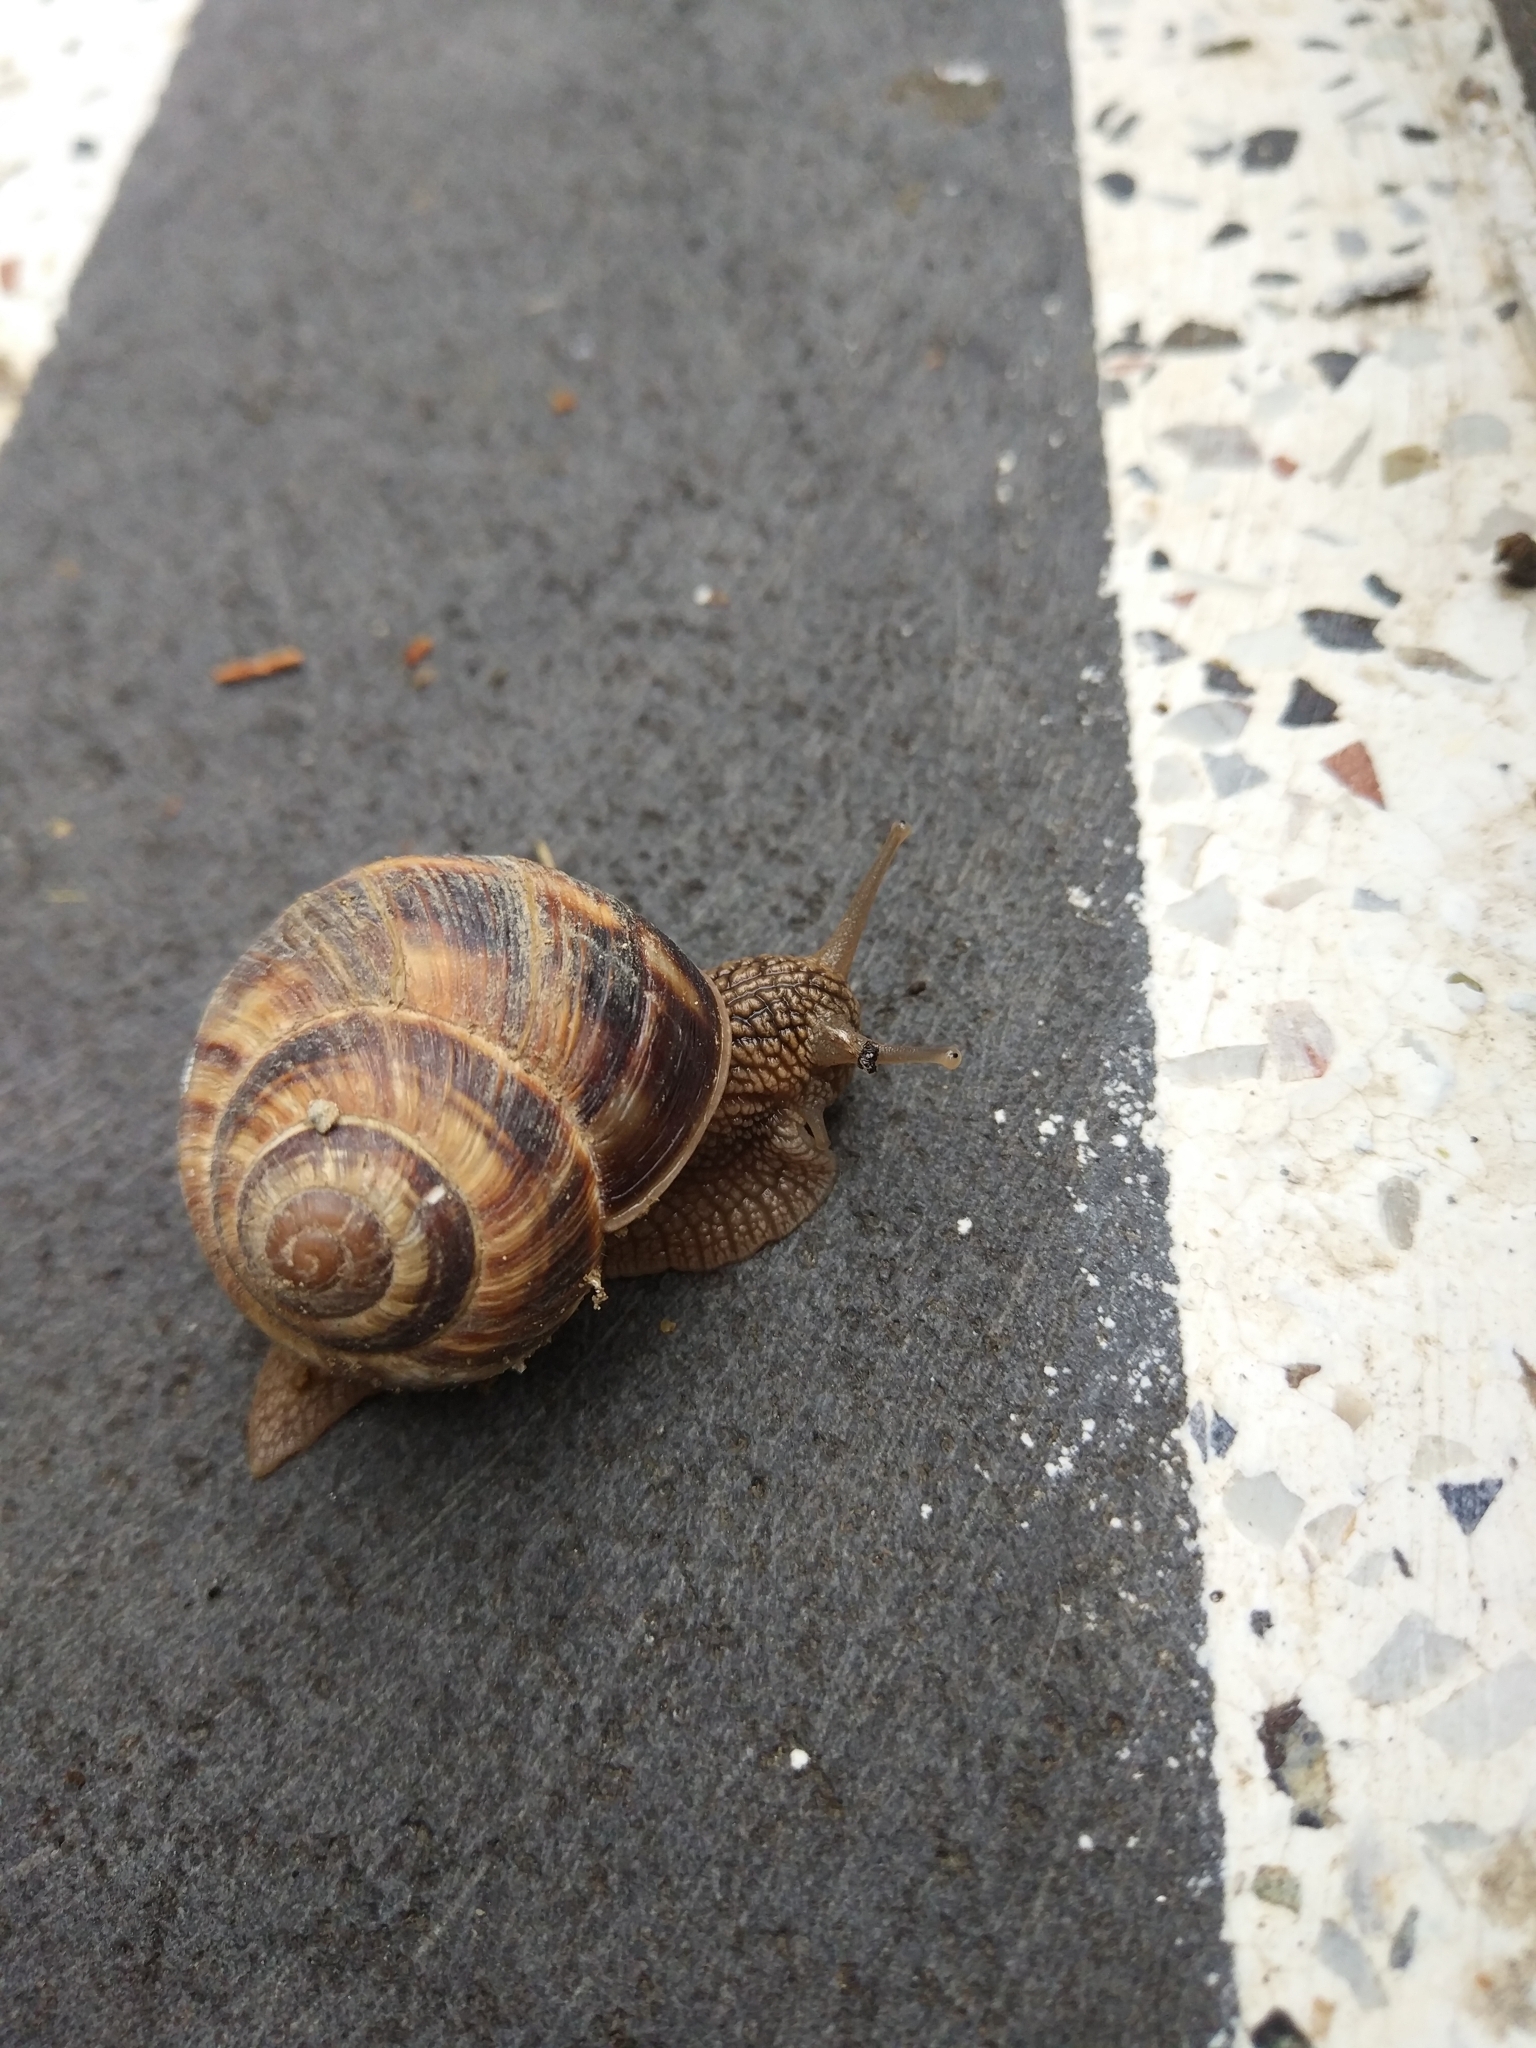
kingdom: Animalia
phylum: Mollusca
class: Gastropoda
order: Stylommatophora
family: Helicidae
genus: Helix
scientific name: Helix lucorum
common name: Turkish snail
